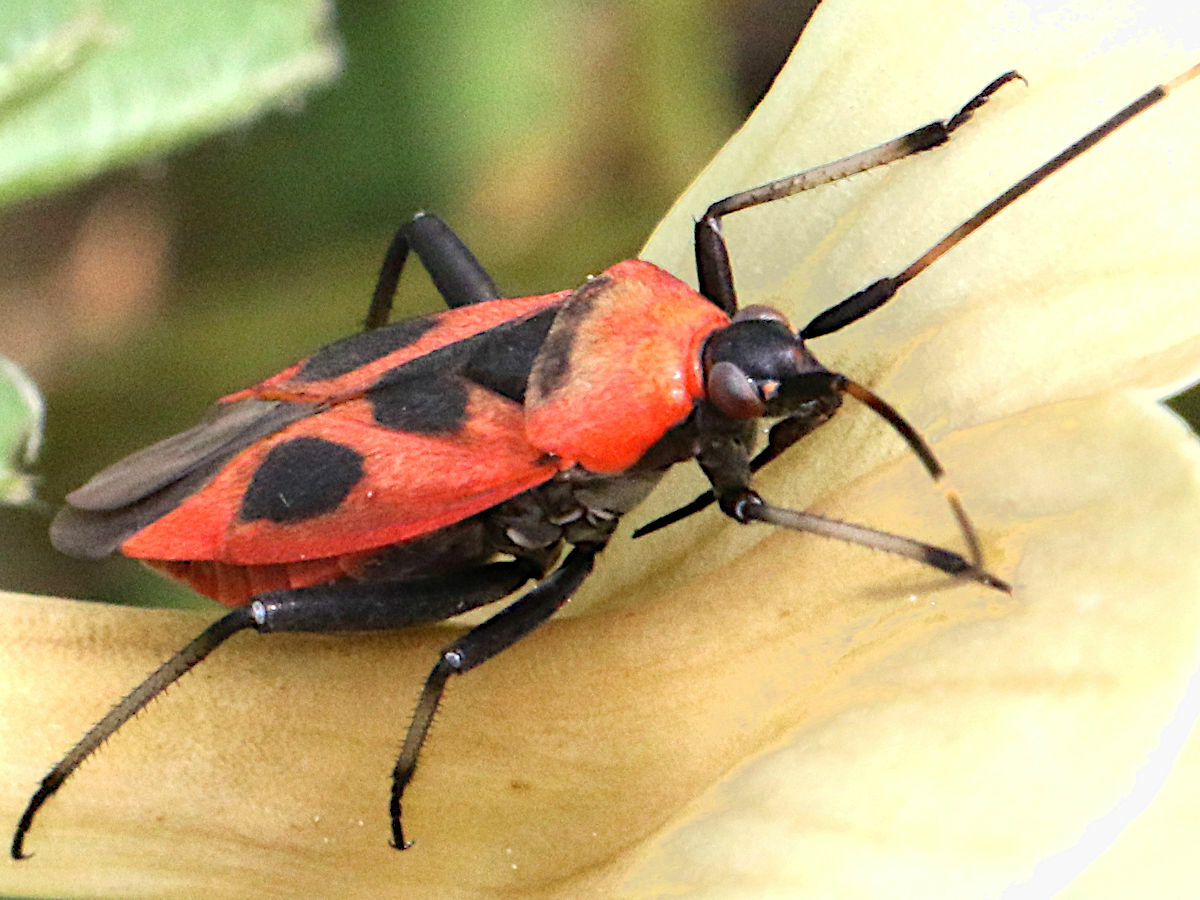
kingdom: Animalia
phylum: Arthropoda
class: Insecta
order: Hemiptera
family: Miridae
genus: Calocoris
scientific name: Calocoris nemoralis
